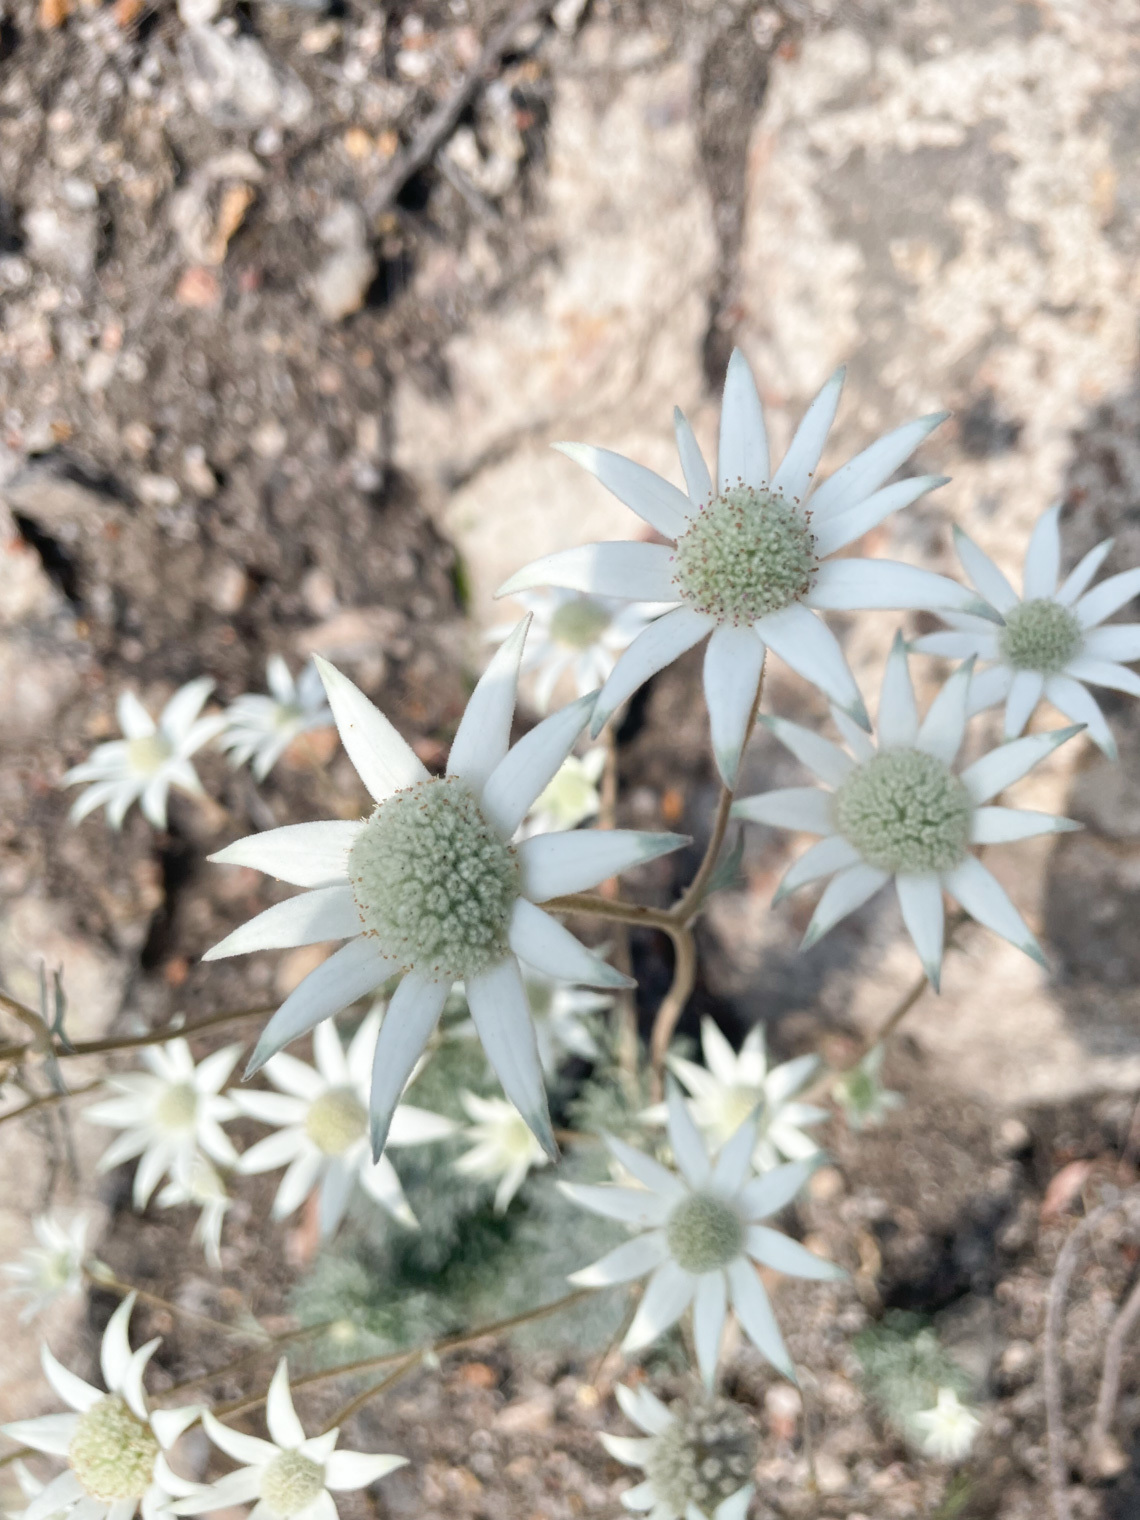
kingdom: Plantae
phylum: Tracheophyta
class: Magnoliopsida
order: Apiales
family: Apiaceae
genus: Actinotus
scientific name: Actinotus helianthi
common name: Flannel-flower
